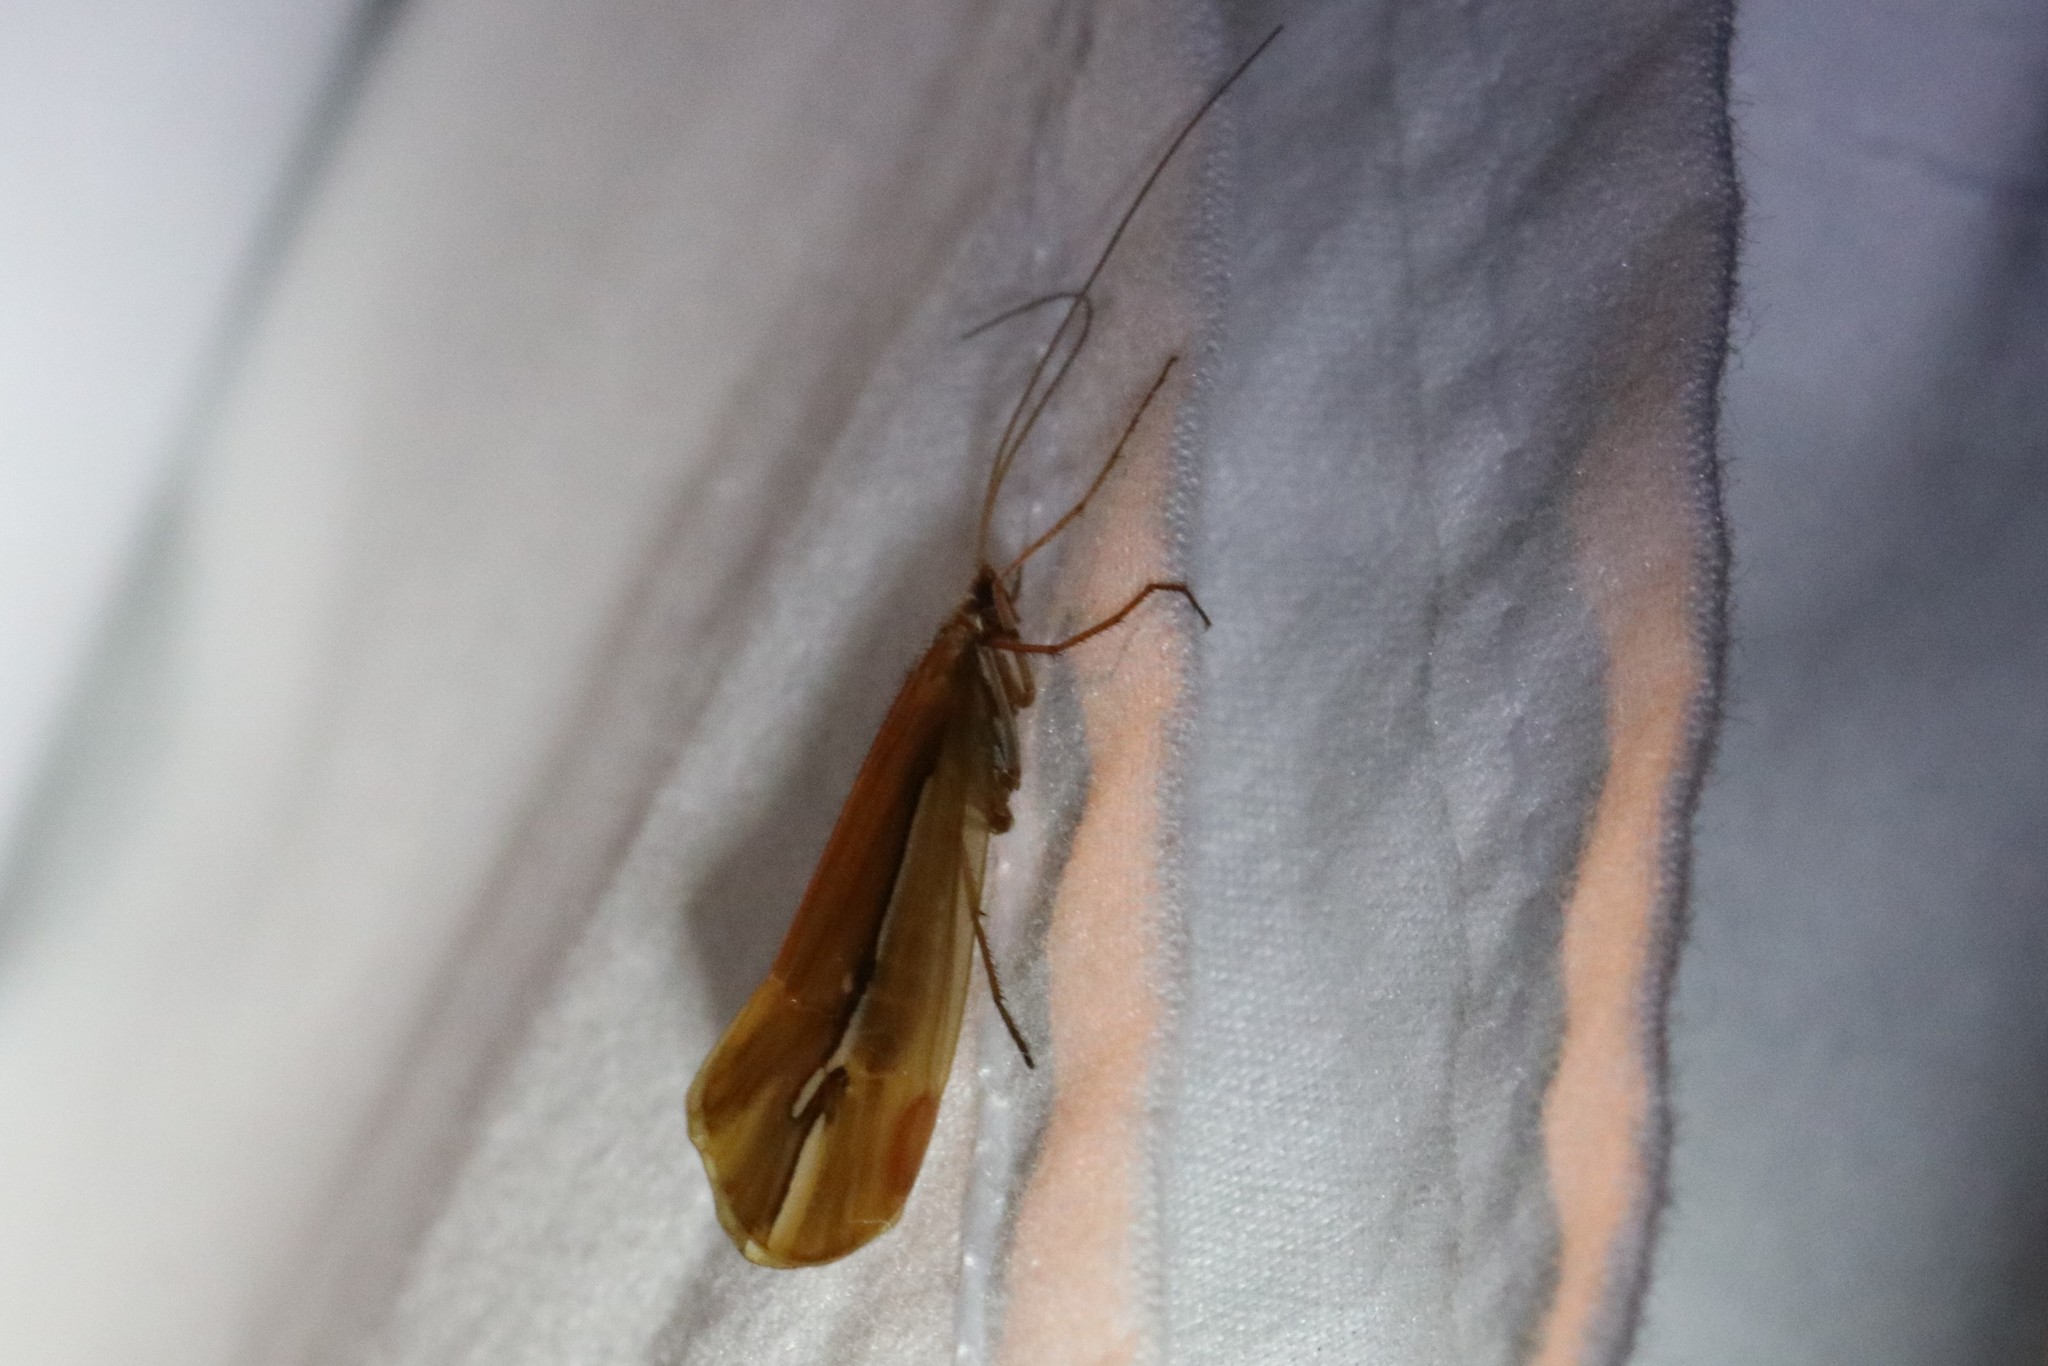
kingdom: Animalia
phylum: Arthropoda
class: Insecta
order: Trichoptera
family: Limnephilidae
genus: Psychoglypha
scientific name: Psychoglypha subborealis
